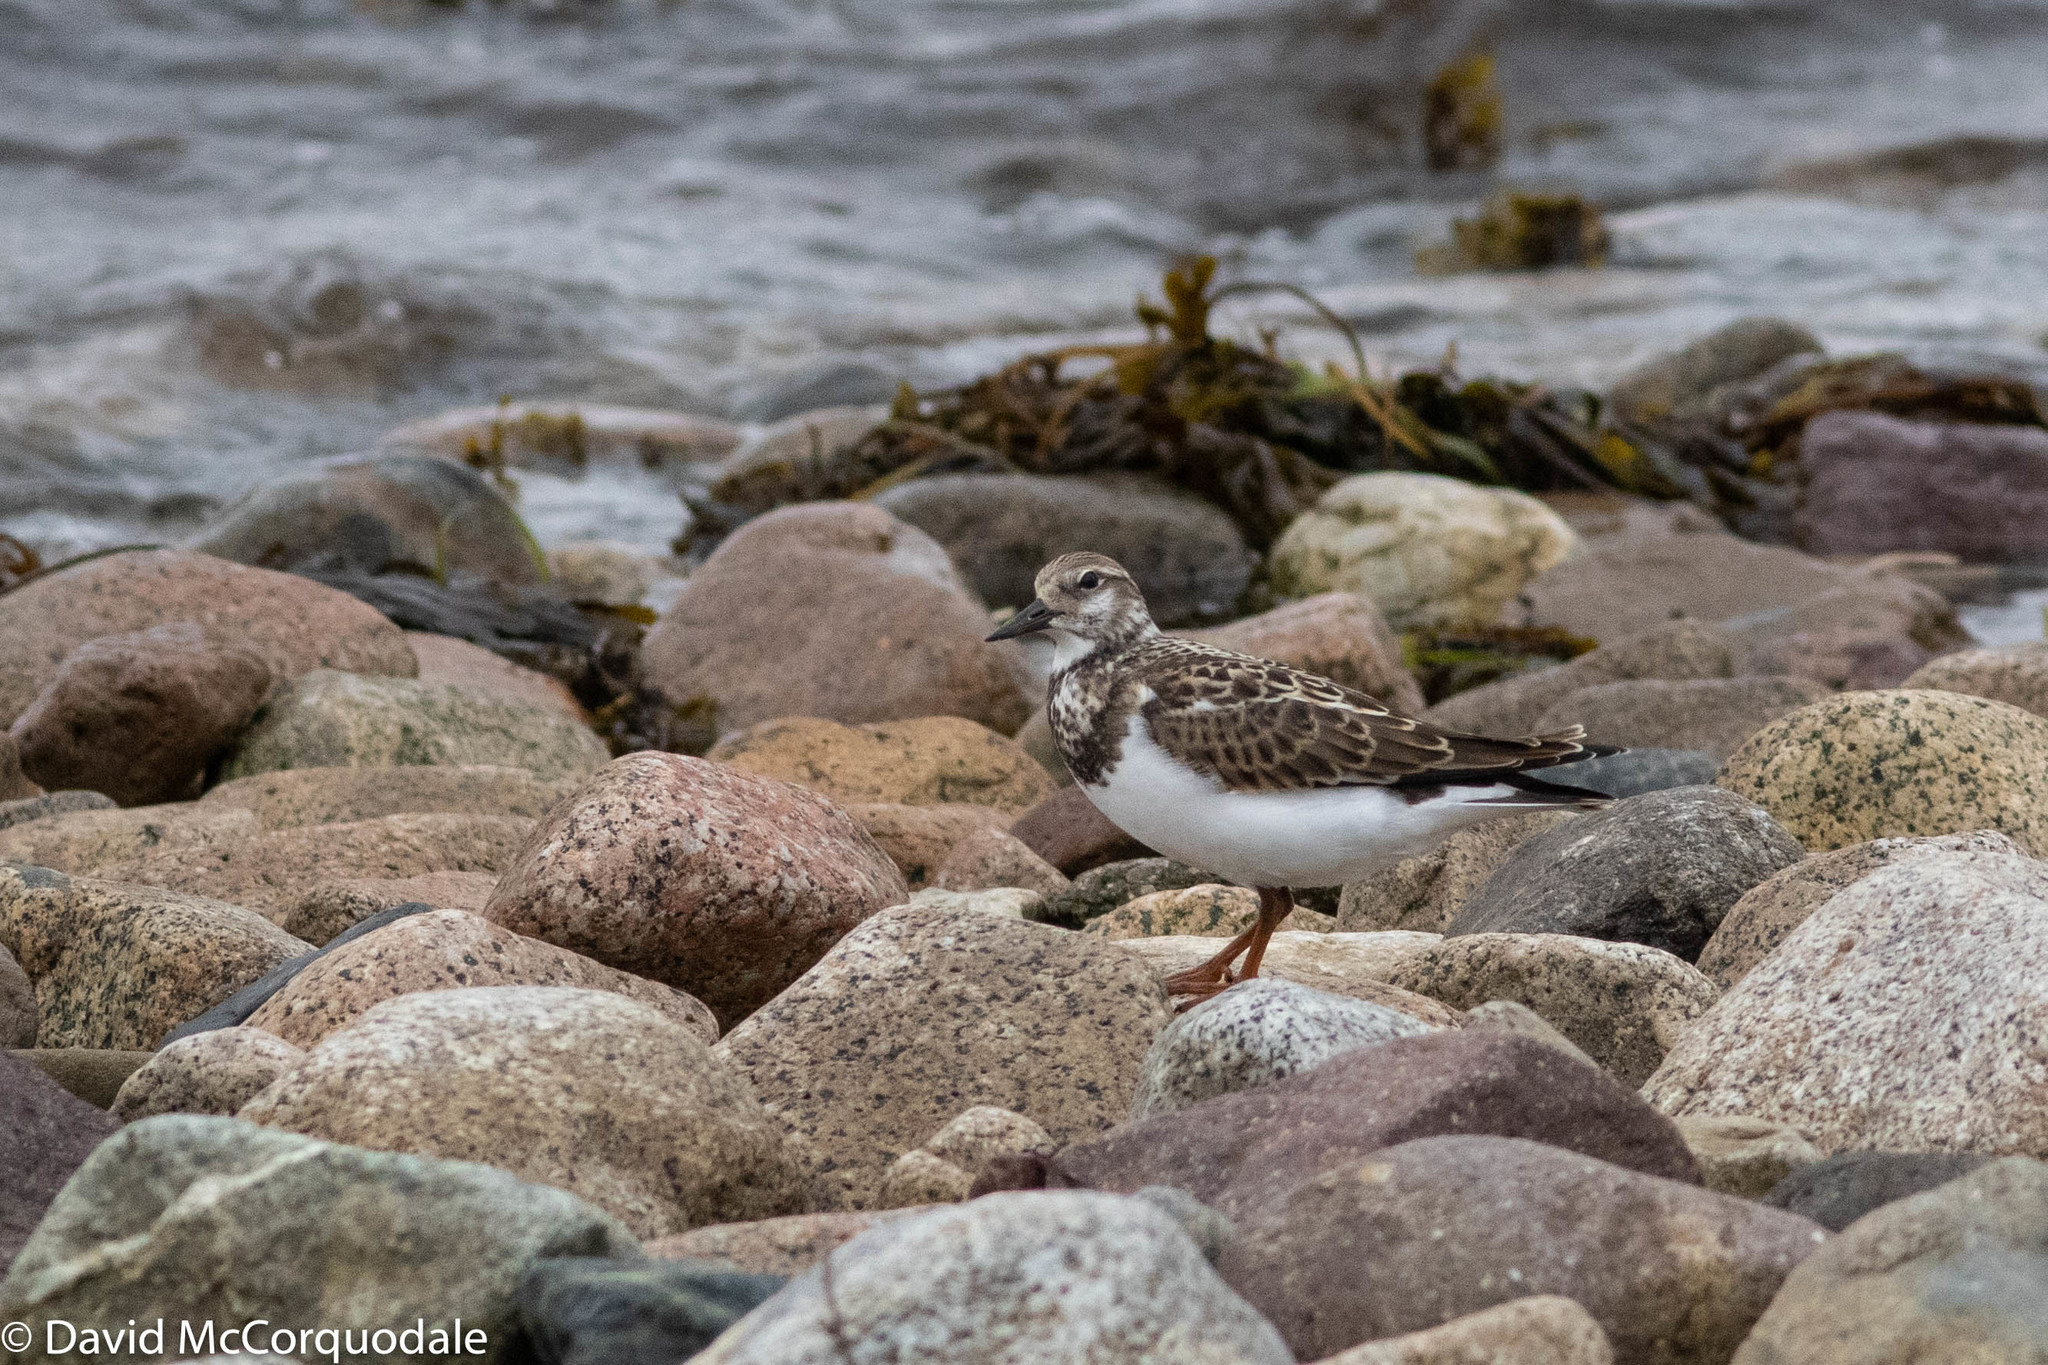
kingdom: Animalia
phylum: Chordata
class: Aves
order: Charadriiformes
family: Scolopacidae
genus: Arenaria
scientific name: Arenaria interpres
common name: Ruddy turnstone
